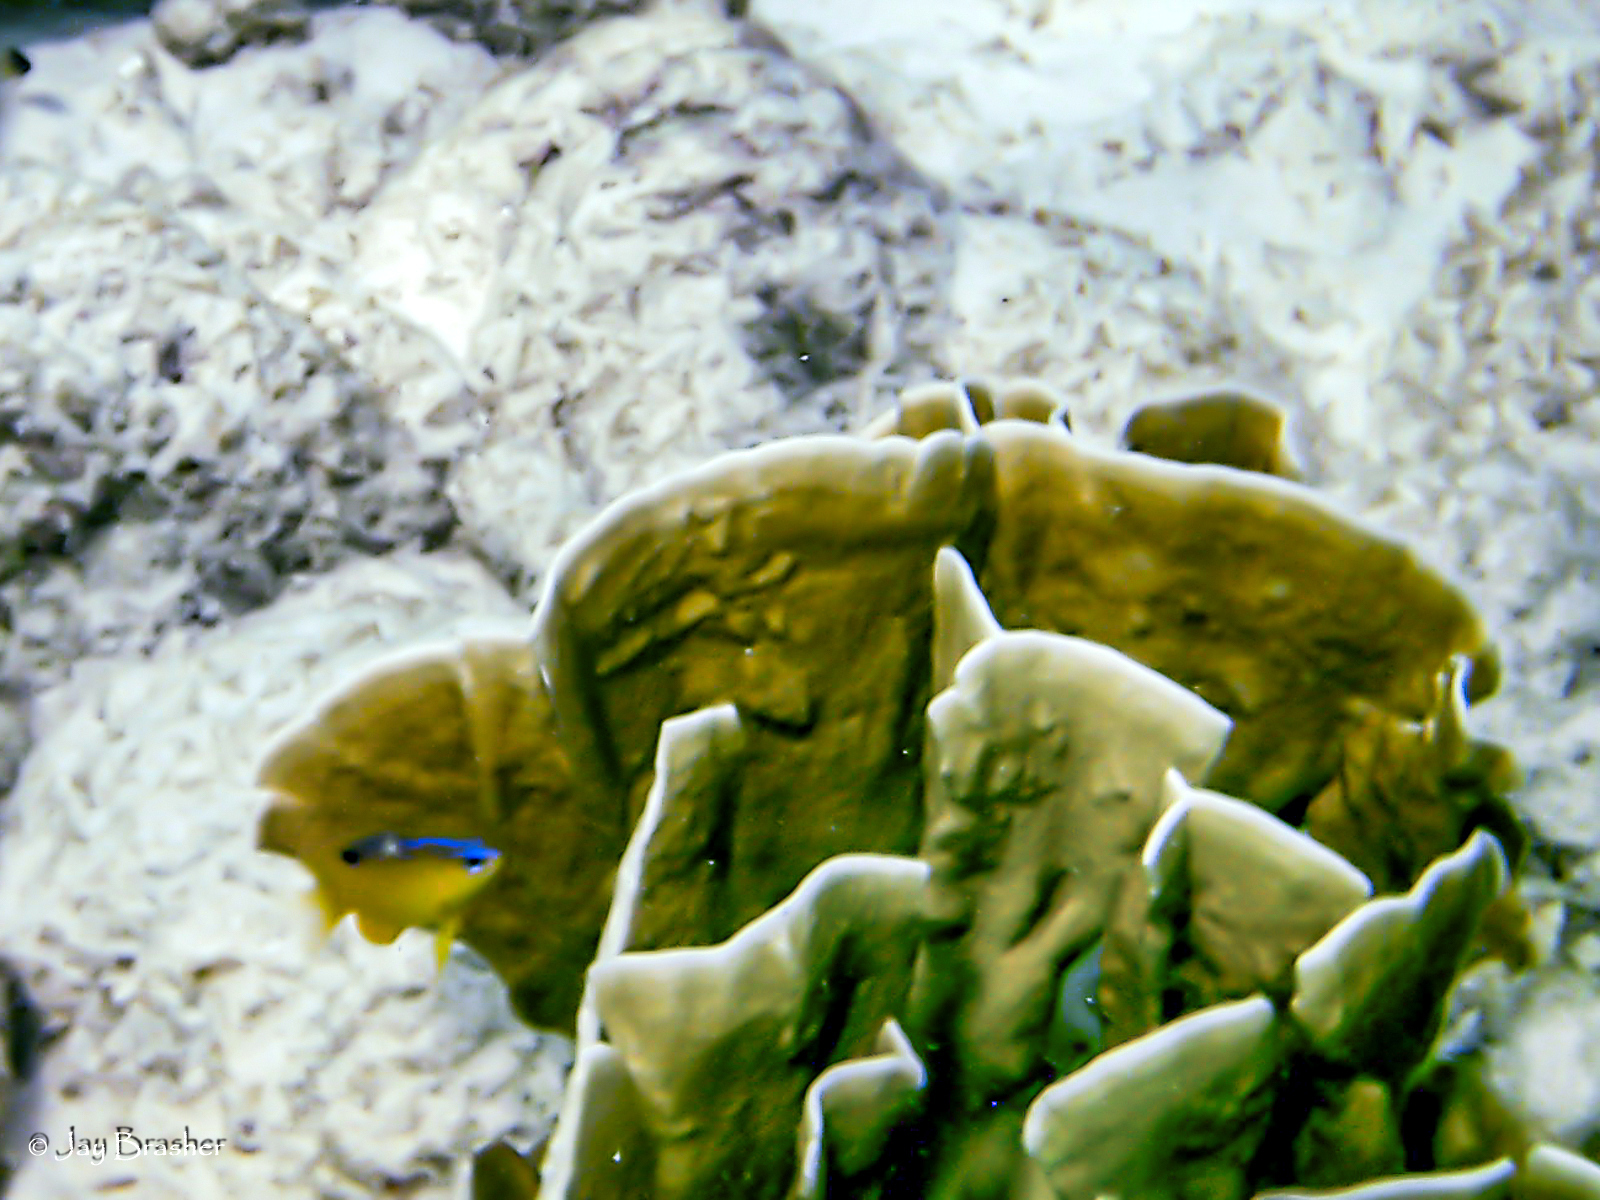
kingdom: Animalia
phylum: Cnidaria
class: Hydrozoa
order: Anthoathecata
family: Milleporidae
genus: Millepora
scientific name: Millepora complanata
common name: Bladed fire coral
